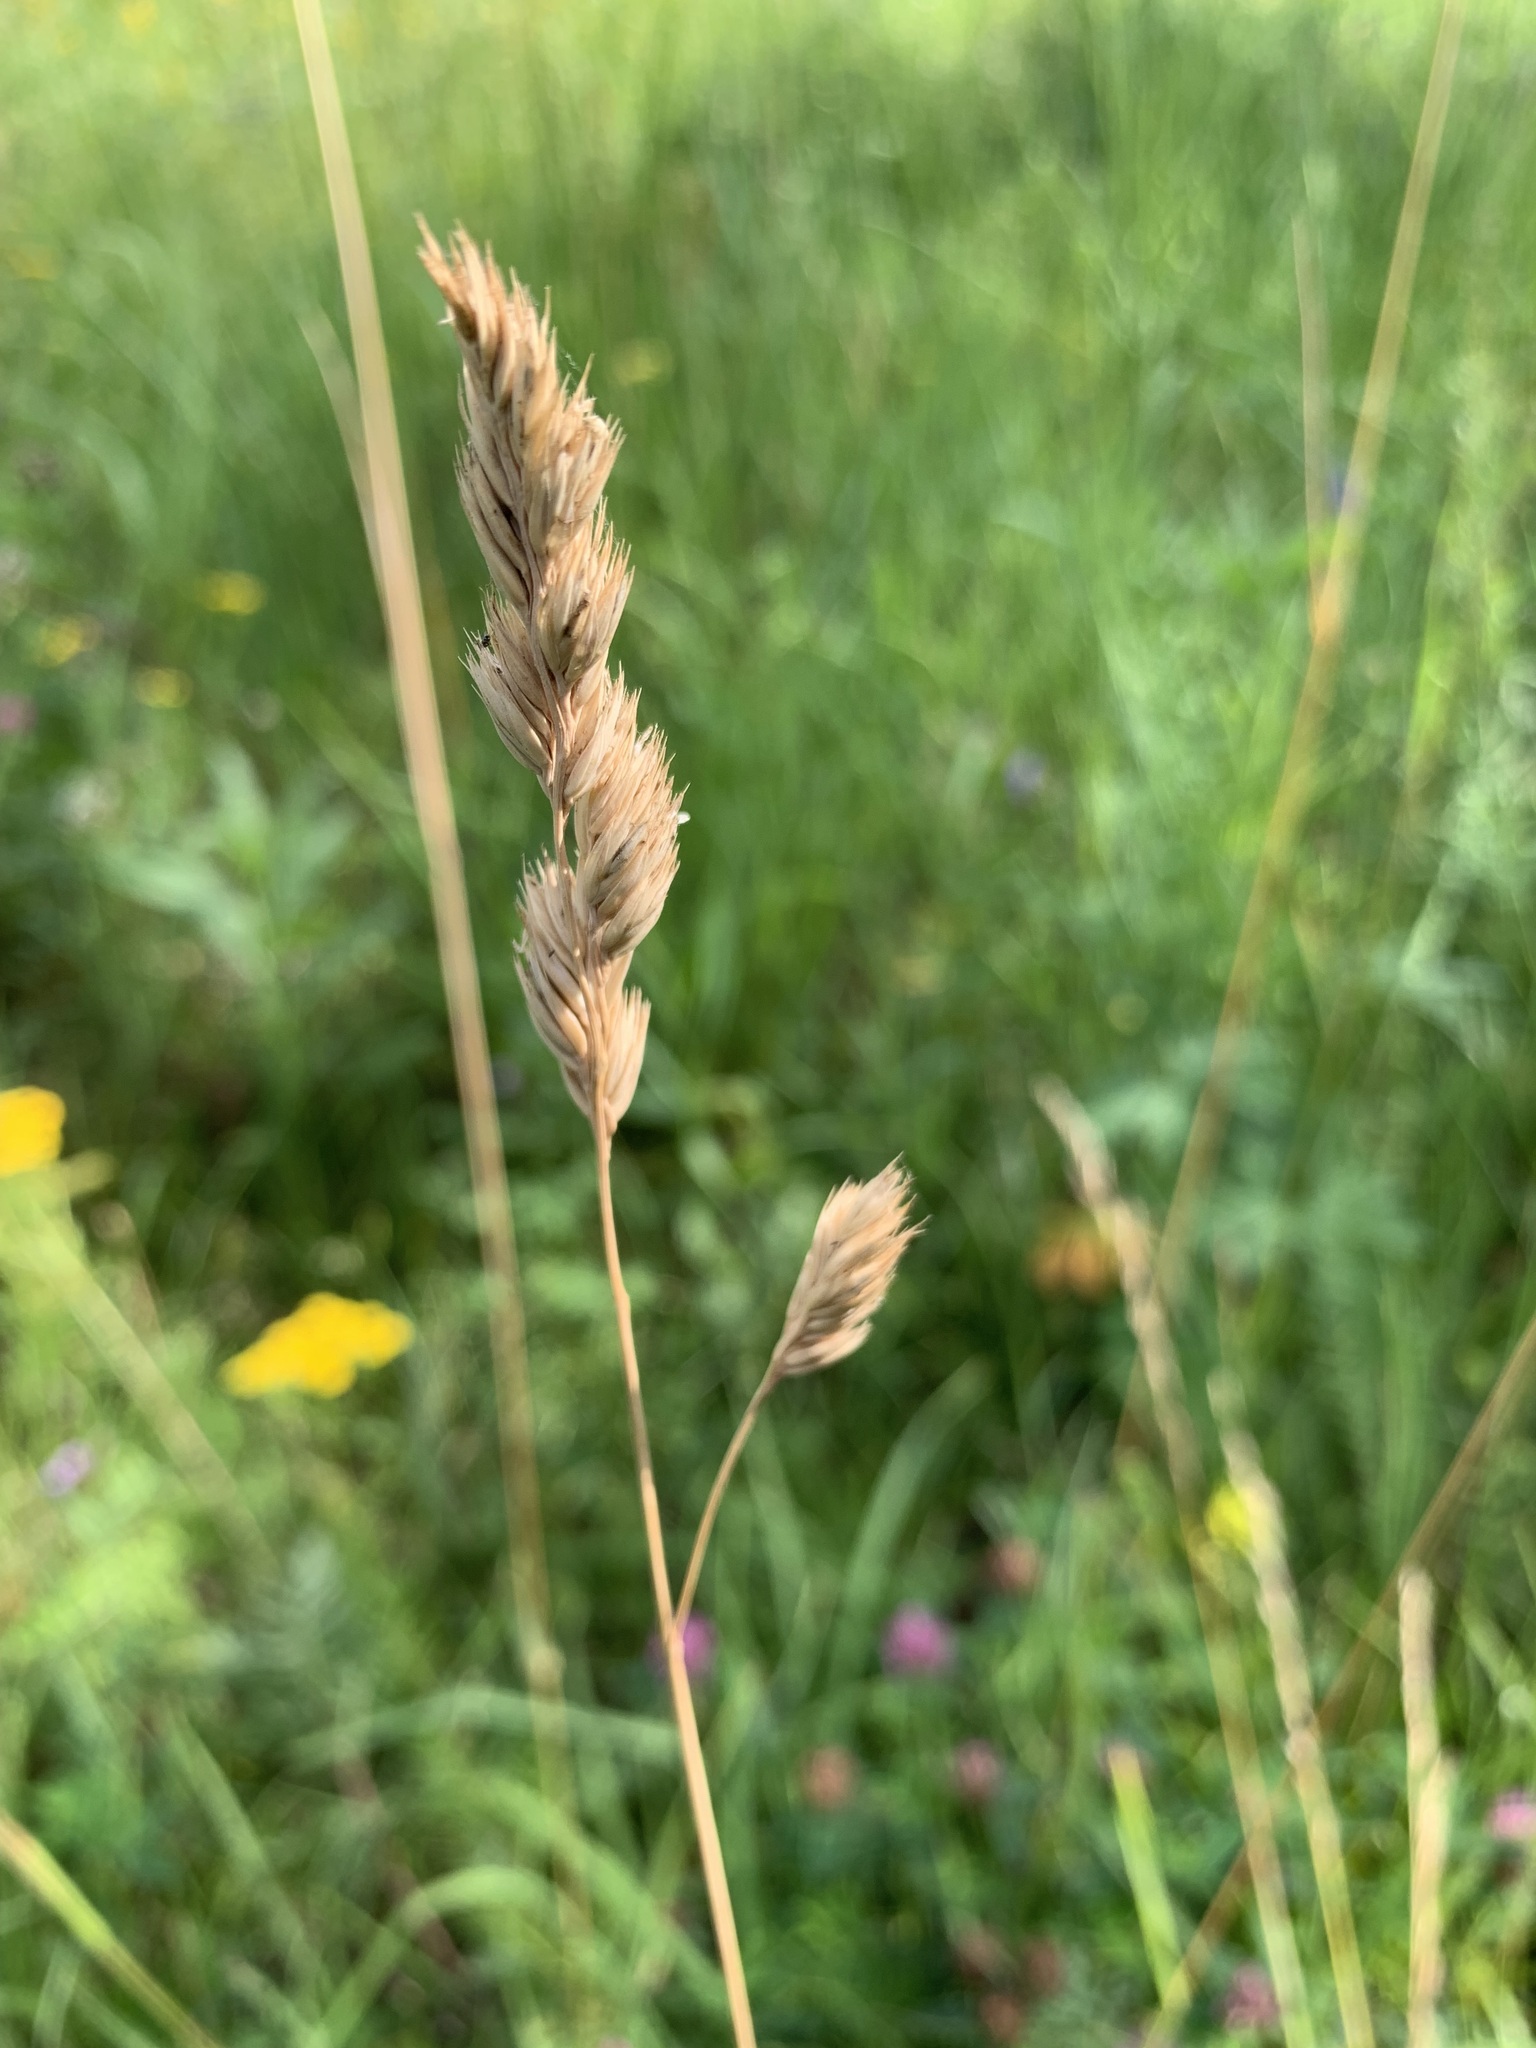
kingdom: Plantae
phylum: Tracheophyta
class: Liliopsida
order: Poales
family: Poaceae
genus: Dactylis
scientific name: Dactylis glomerata
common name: Orchardgrass
